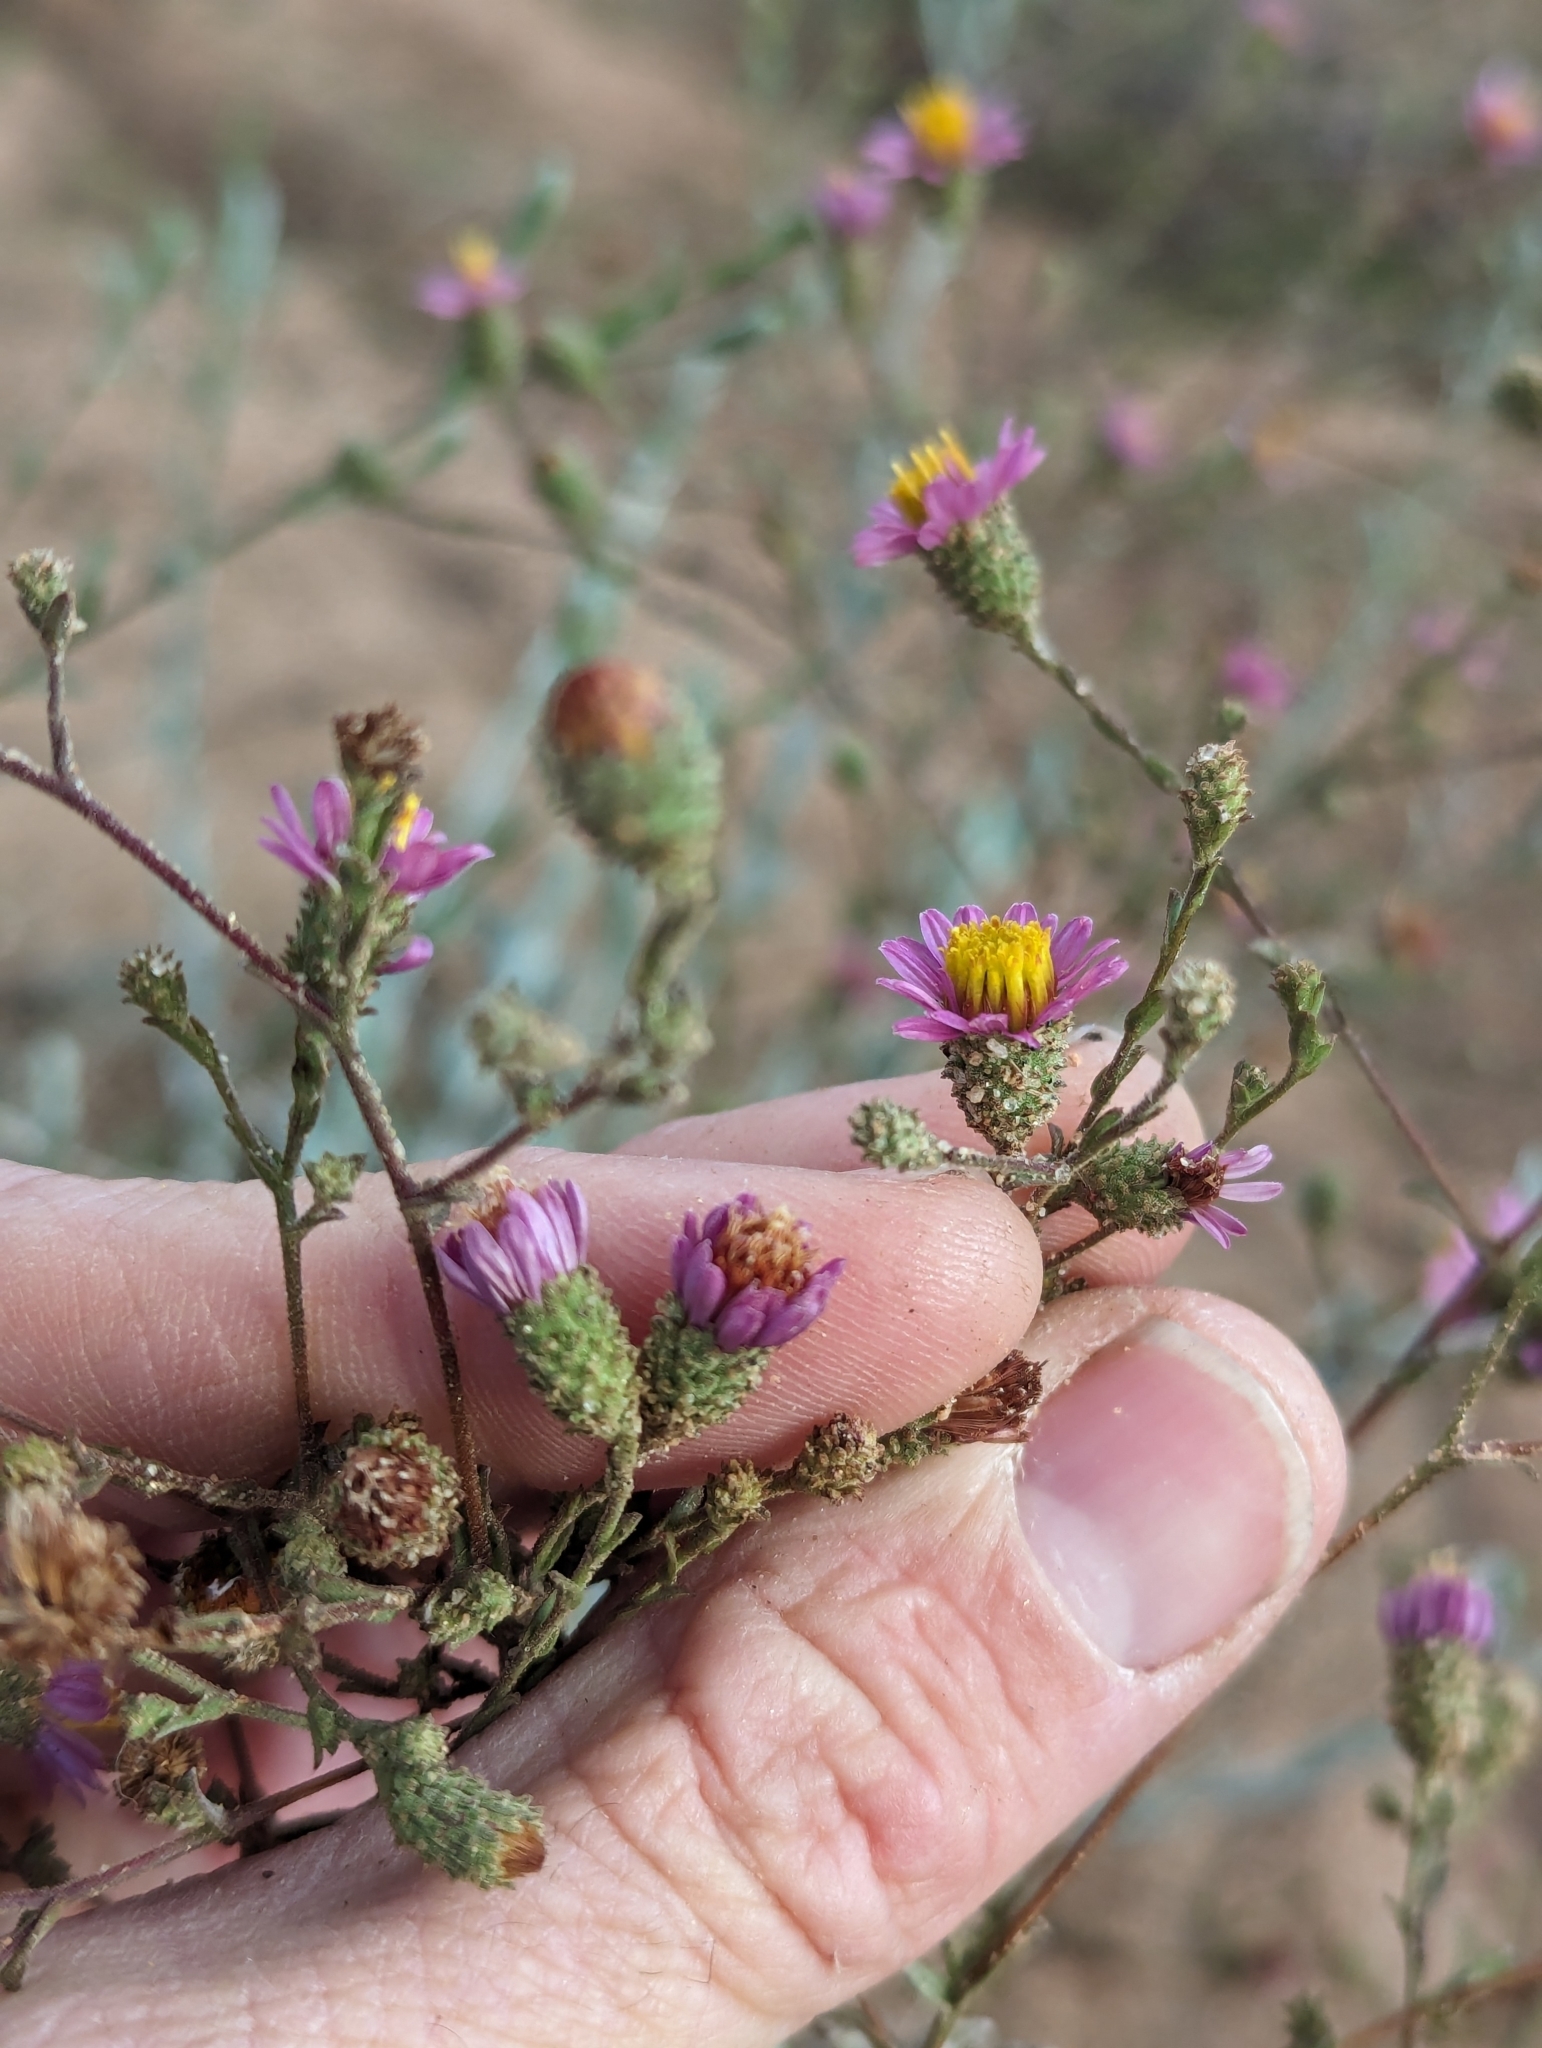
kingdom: Plantae
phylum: Tracheophyta
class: Magnoliopsida
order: Asterales
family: Asteraceae
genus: Corethrogyne
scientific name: Corethrogyne filaginifolia
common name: Sand-aster
